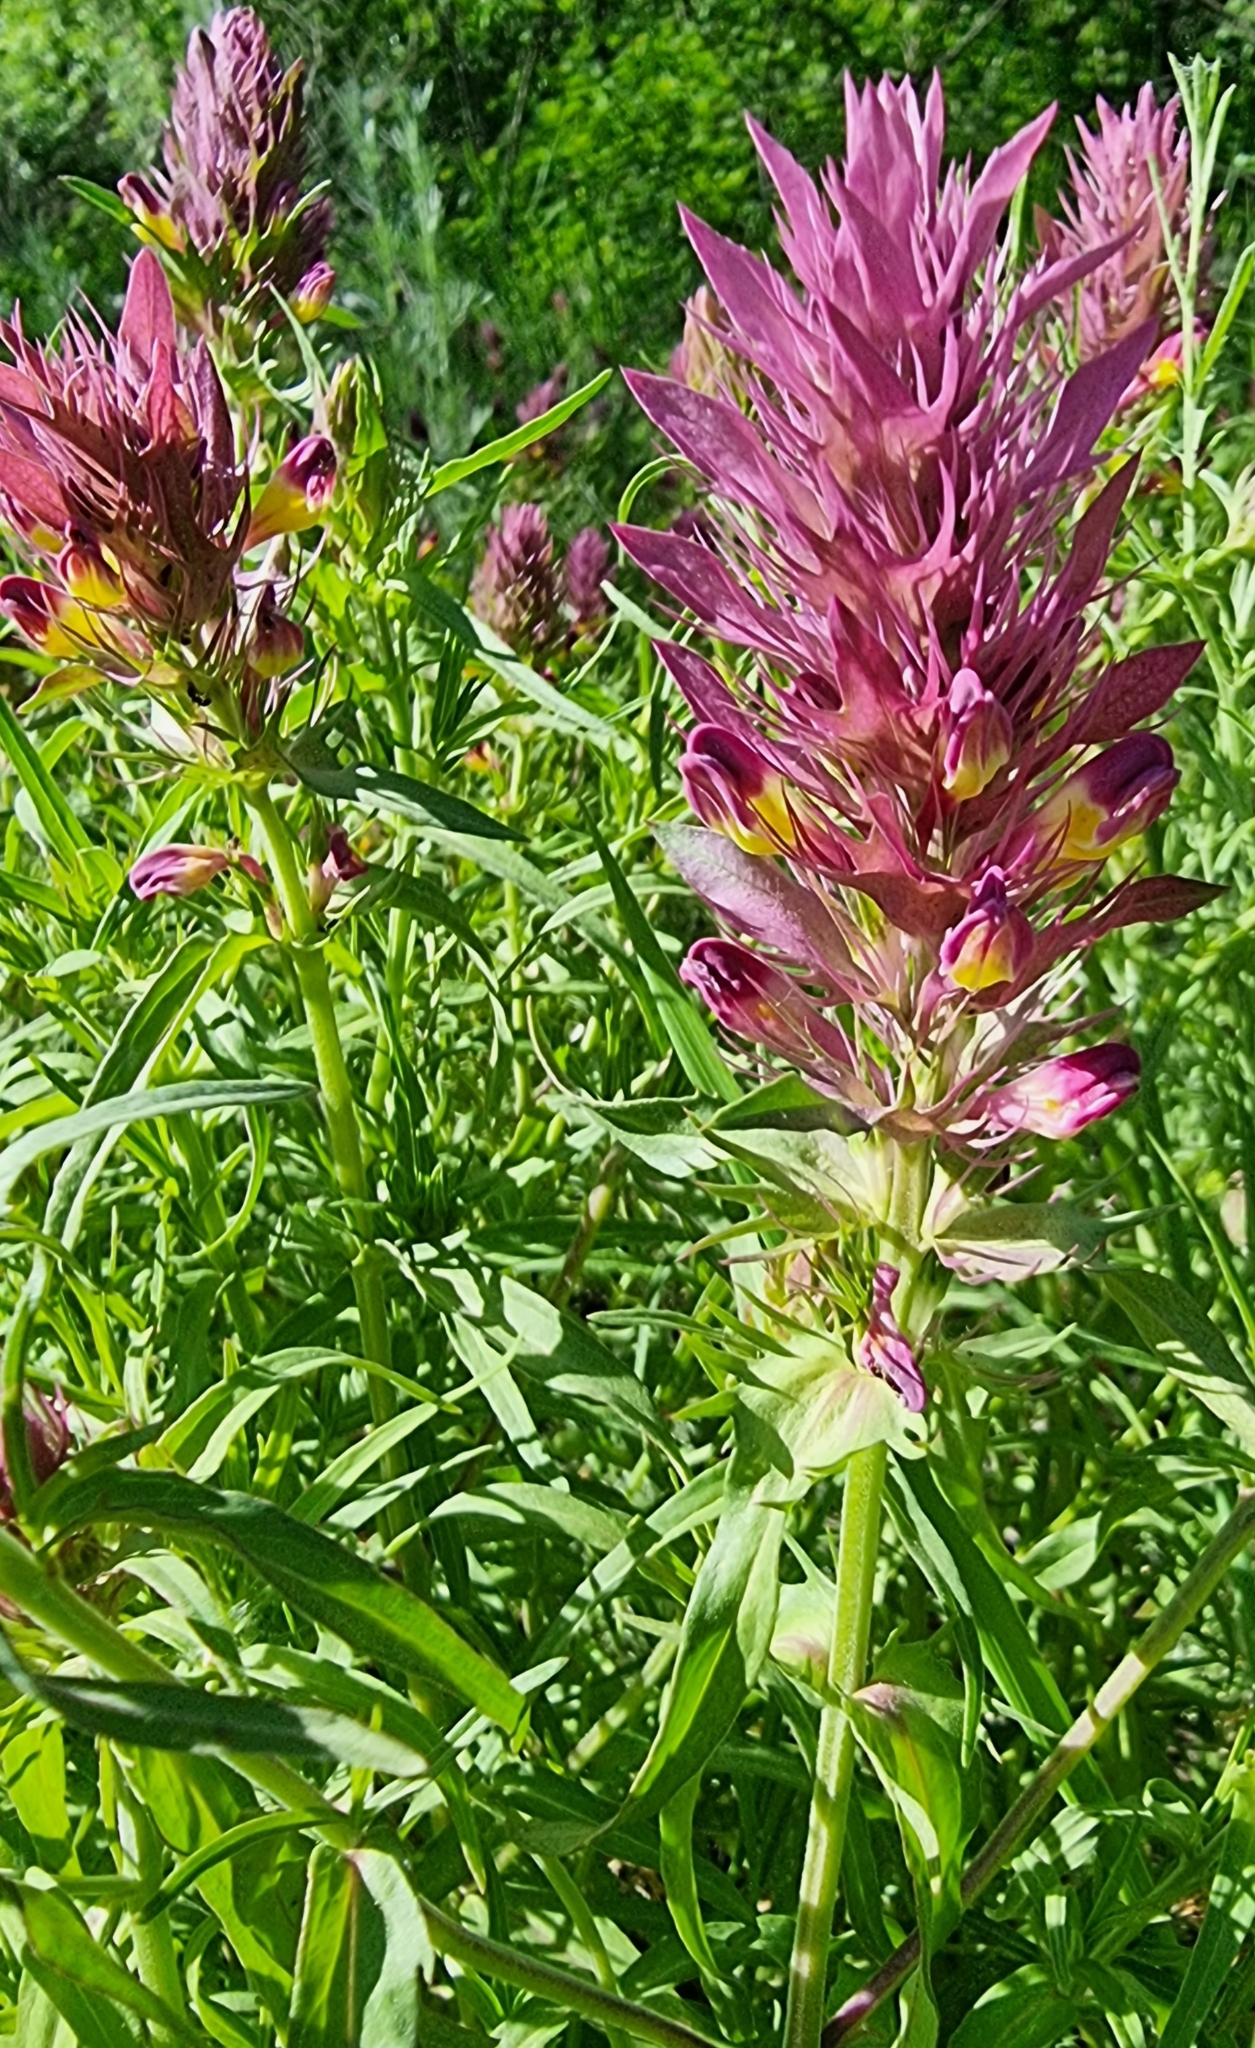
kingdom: Plantae
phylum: Tracheophyta
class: Magnoliopsida
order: Lamiales
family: Orobanchaceae
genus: Melampyrum
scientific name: Melampyrum arvense
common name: Field cow-wheat
